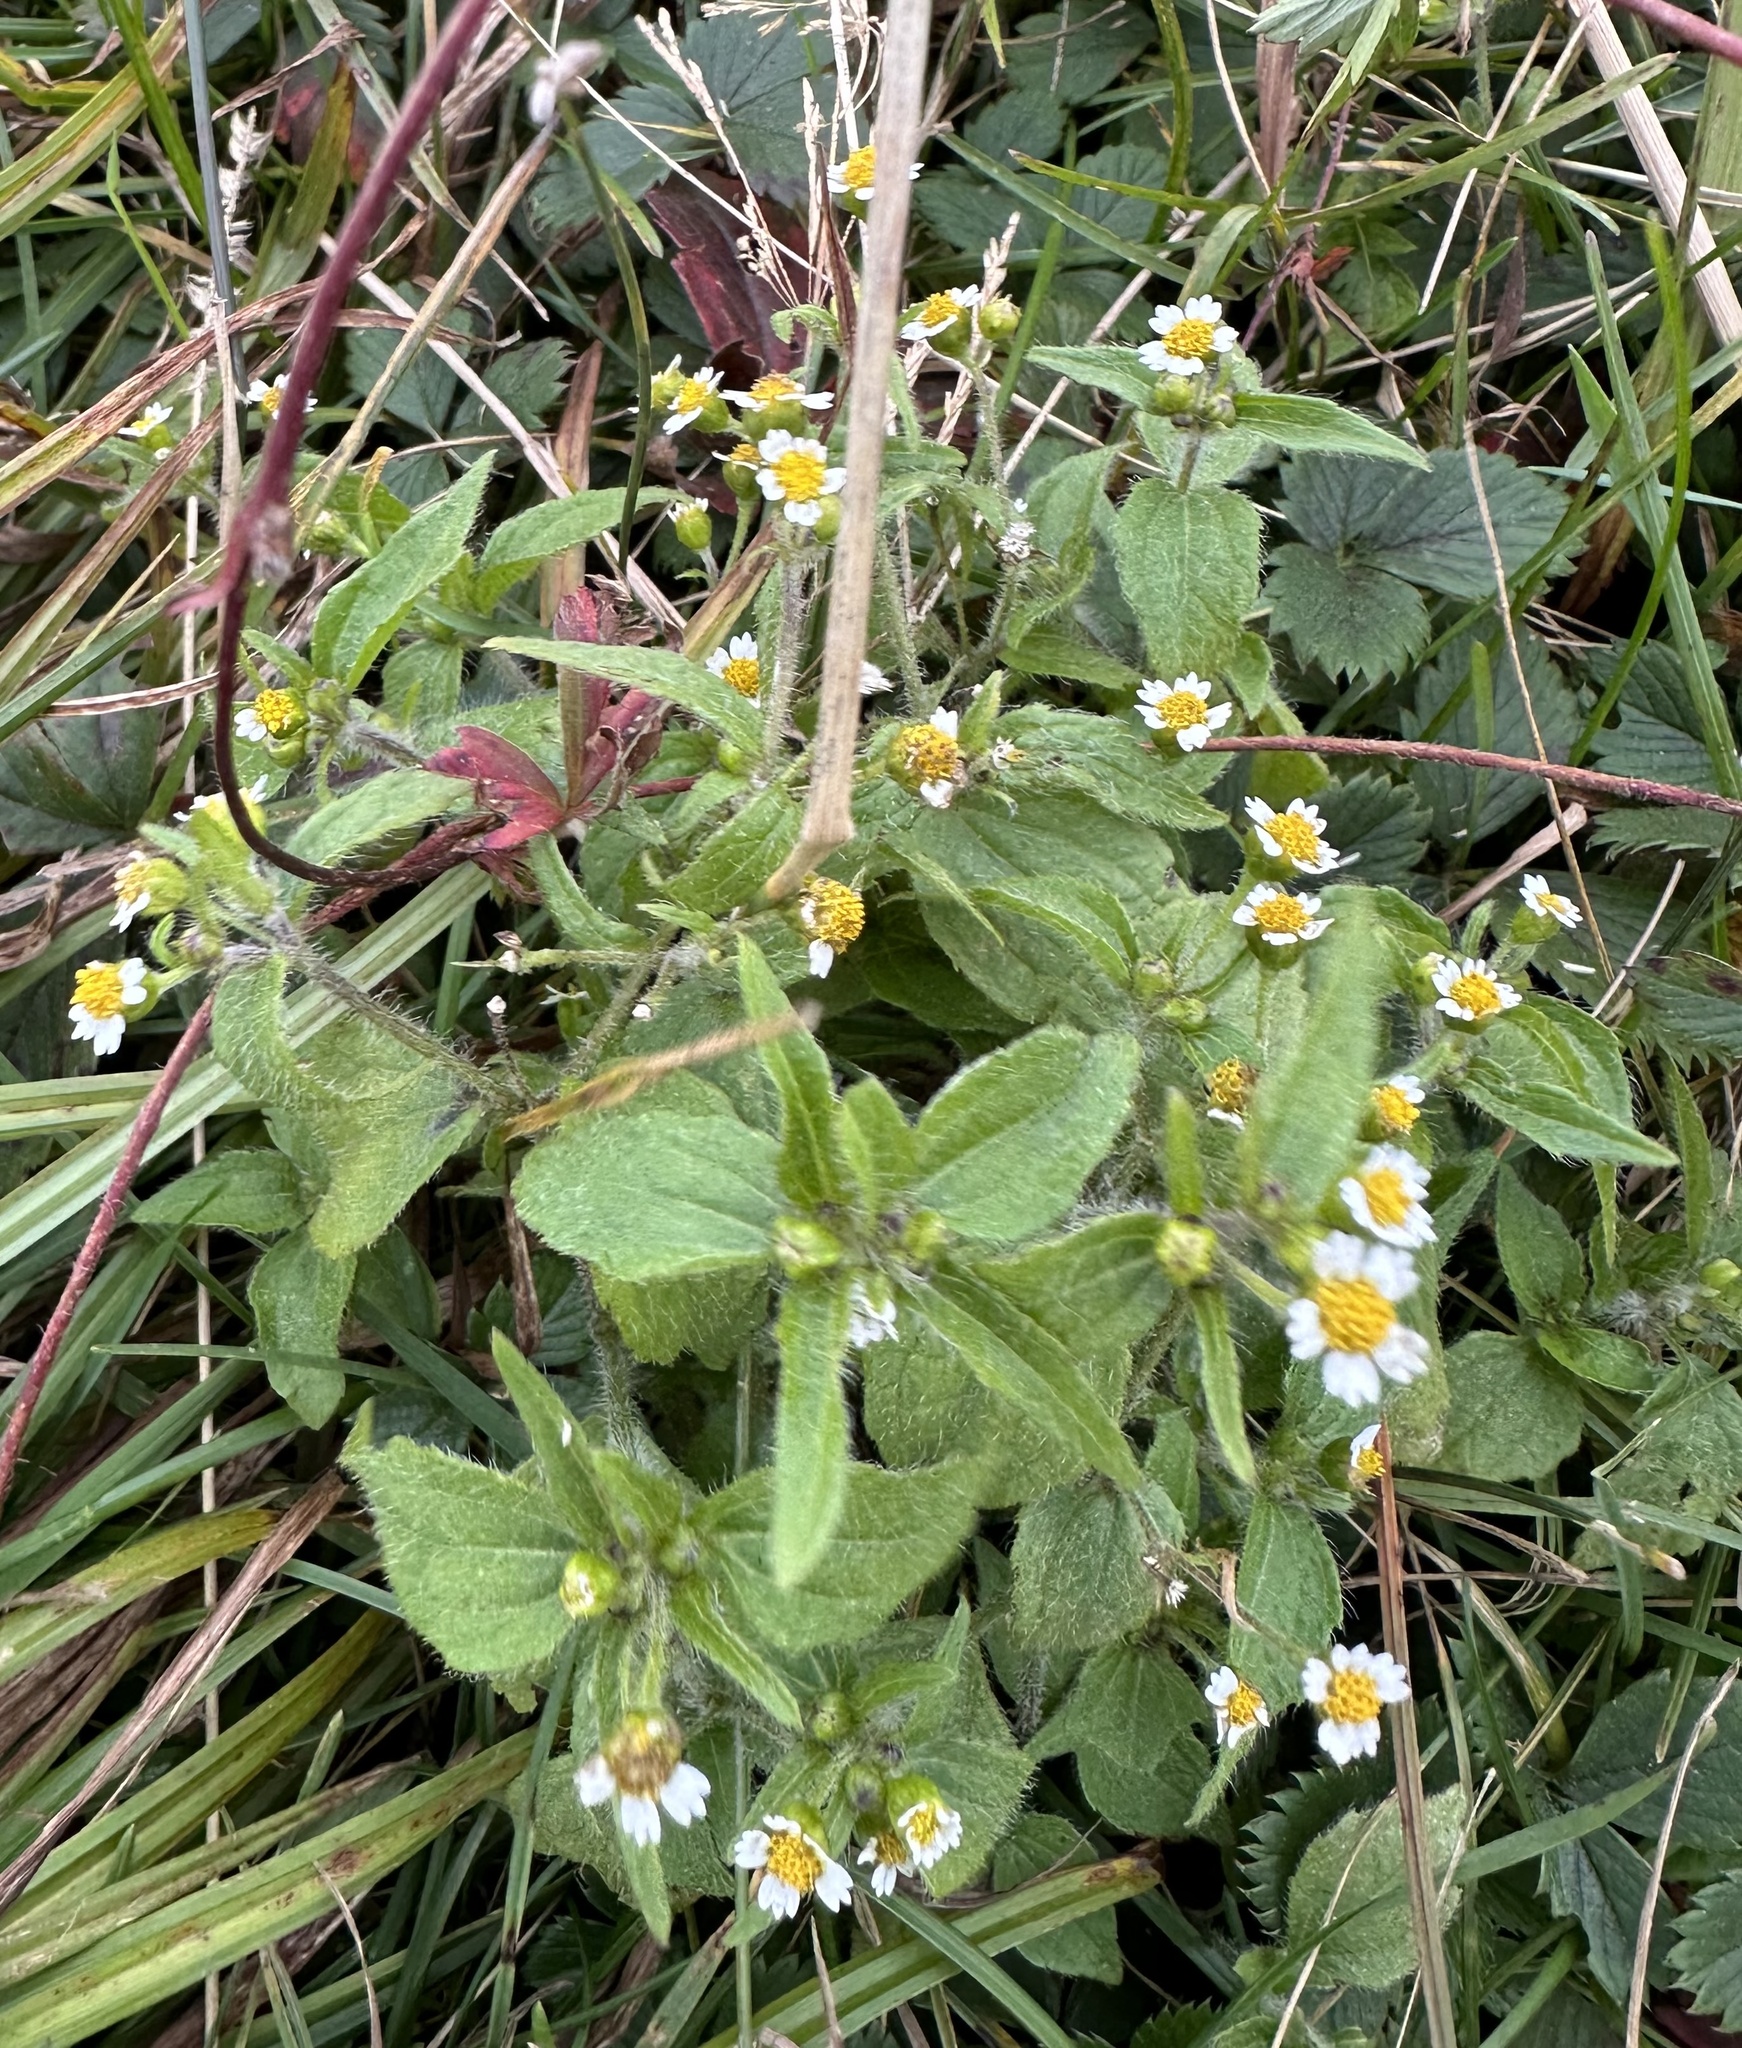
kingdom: Plantae
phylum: Tracheophyta
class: Magnoliopsida
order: Asterales
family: Asteraceae
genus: Galinsoga
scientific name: Galinsoga quadriradiata
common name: Shaggy soldier
